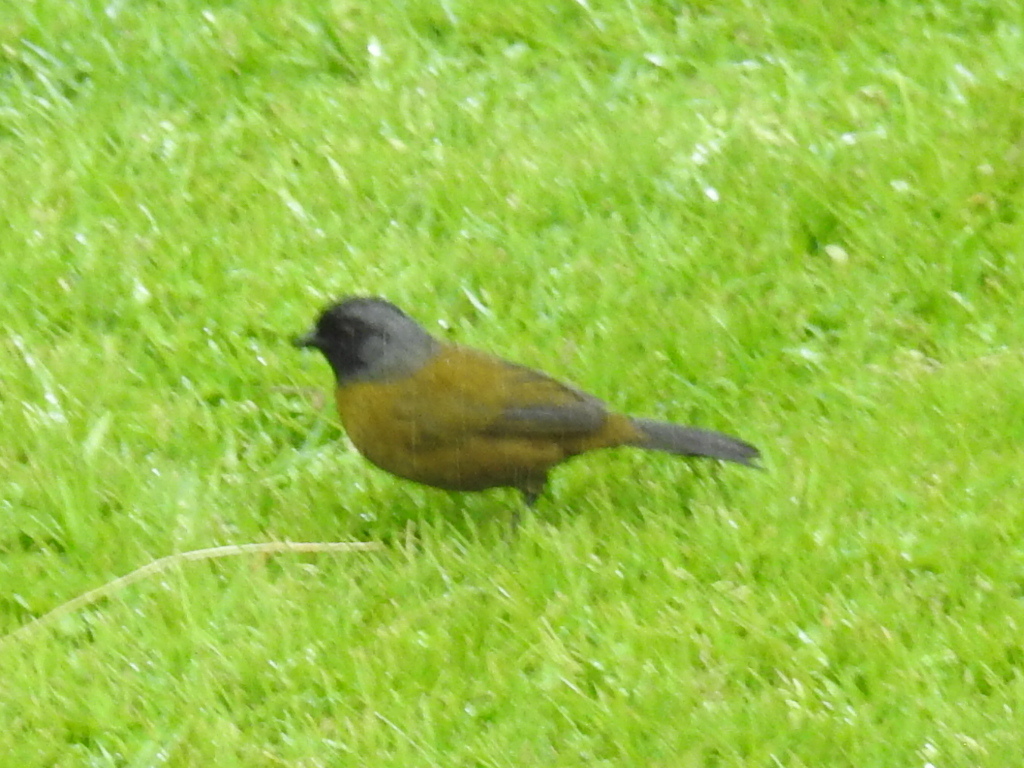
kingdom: Animalia
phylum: Chordata
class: Aves
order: Passeriformes
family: Passerellidae
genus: Pezopetes
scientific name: Pezopetes capitalis
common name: Large-footed finch
